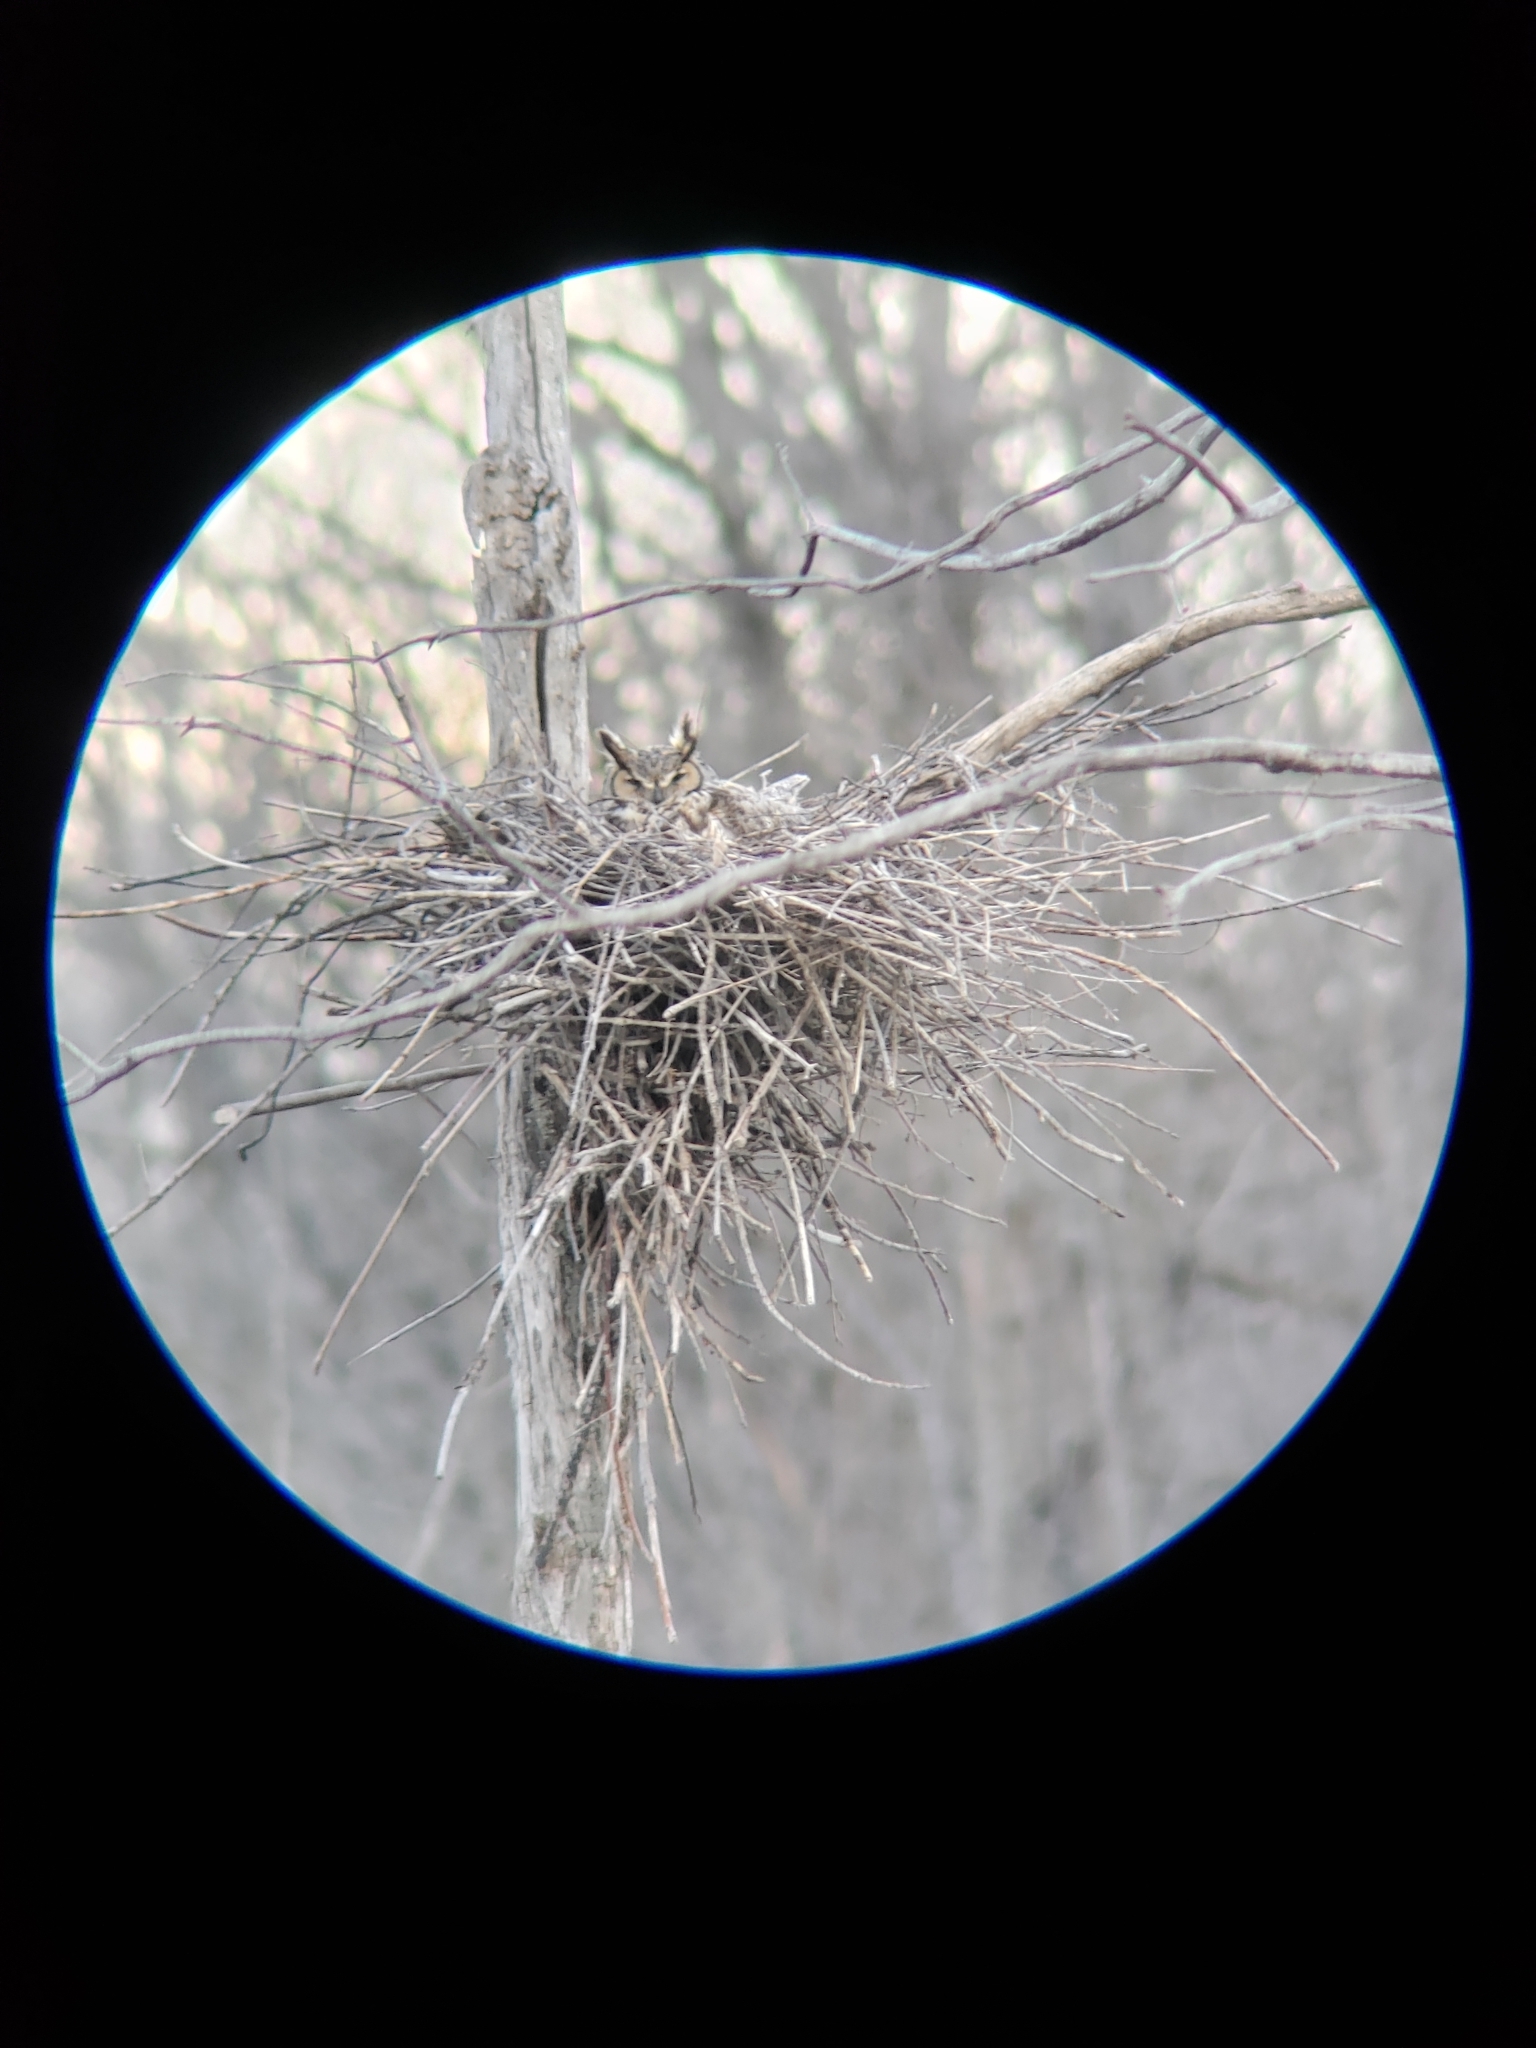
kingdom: Animalia
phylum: Chordata
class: Aves
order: Strigiformes
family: Strigidae
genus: Bubo
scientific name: Bubo virginianus
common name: Great horned owl
